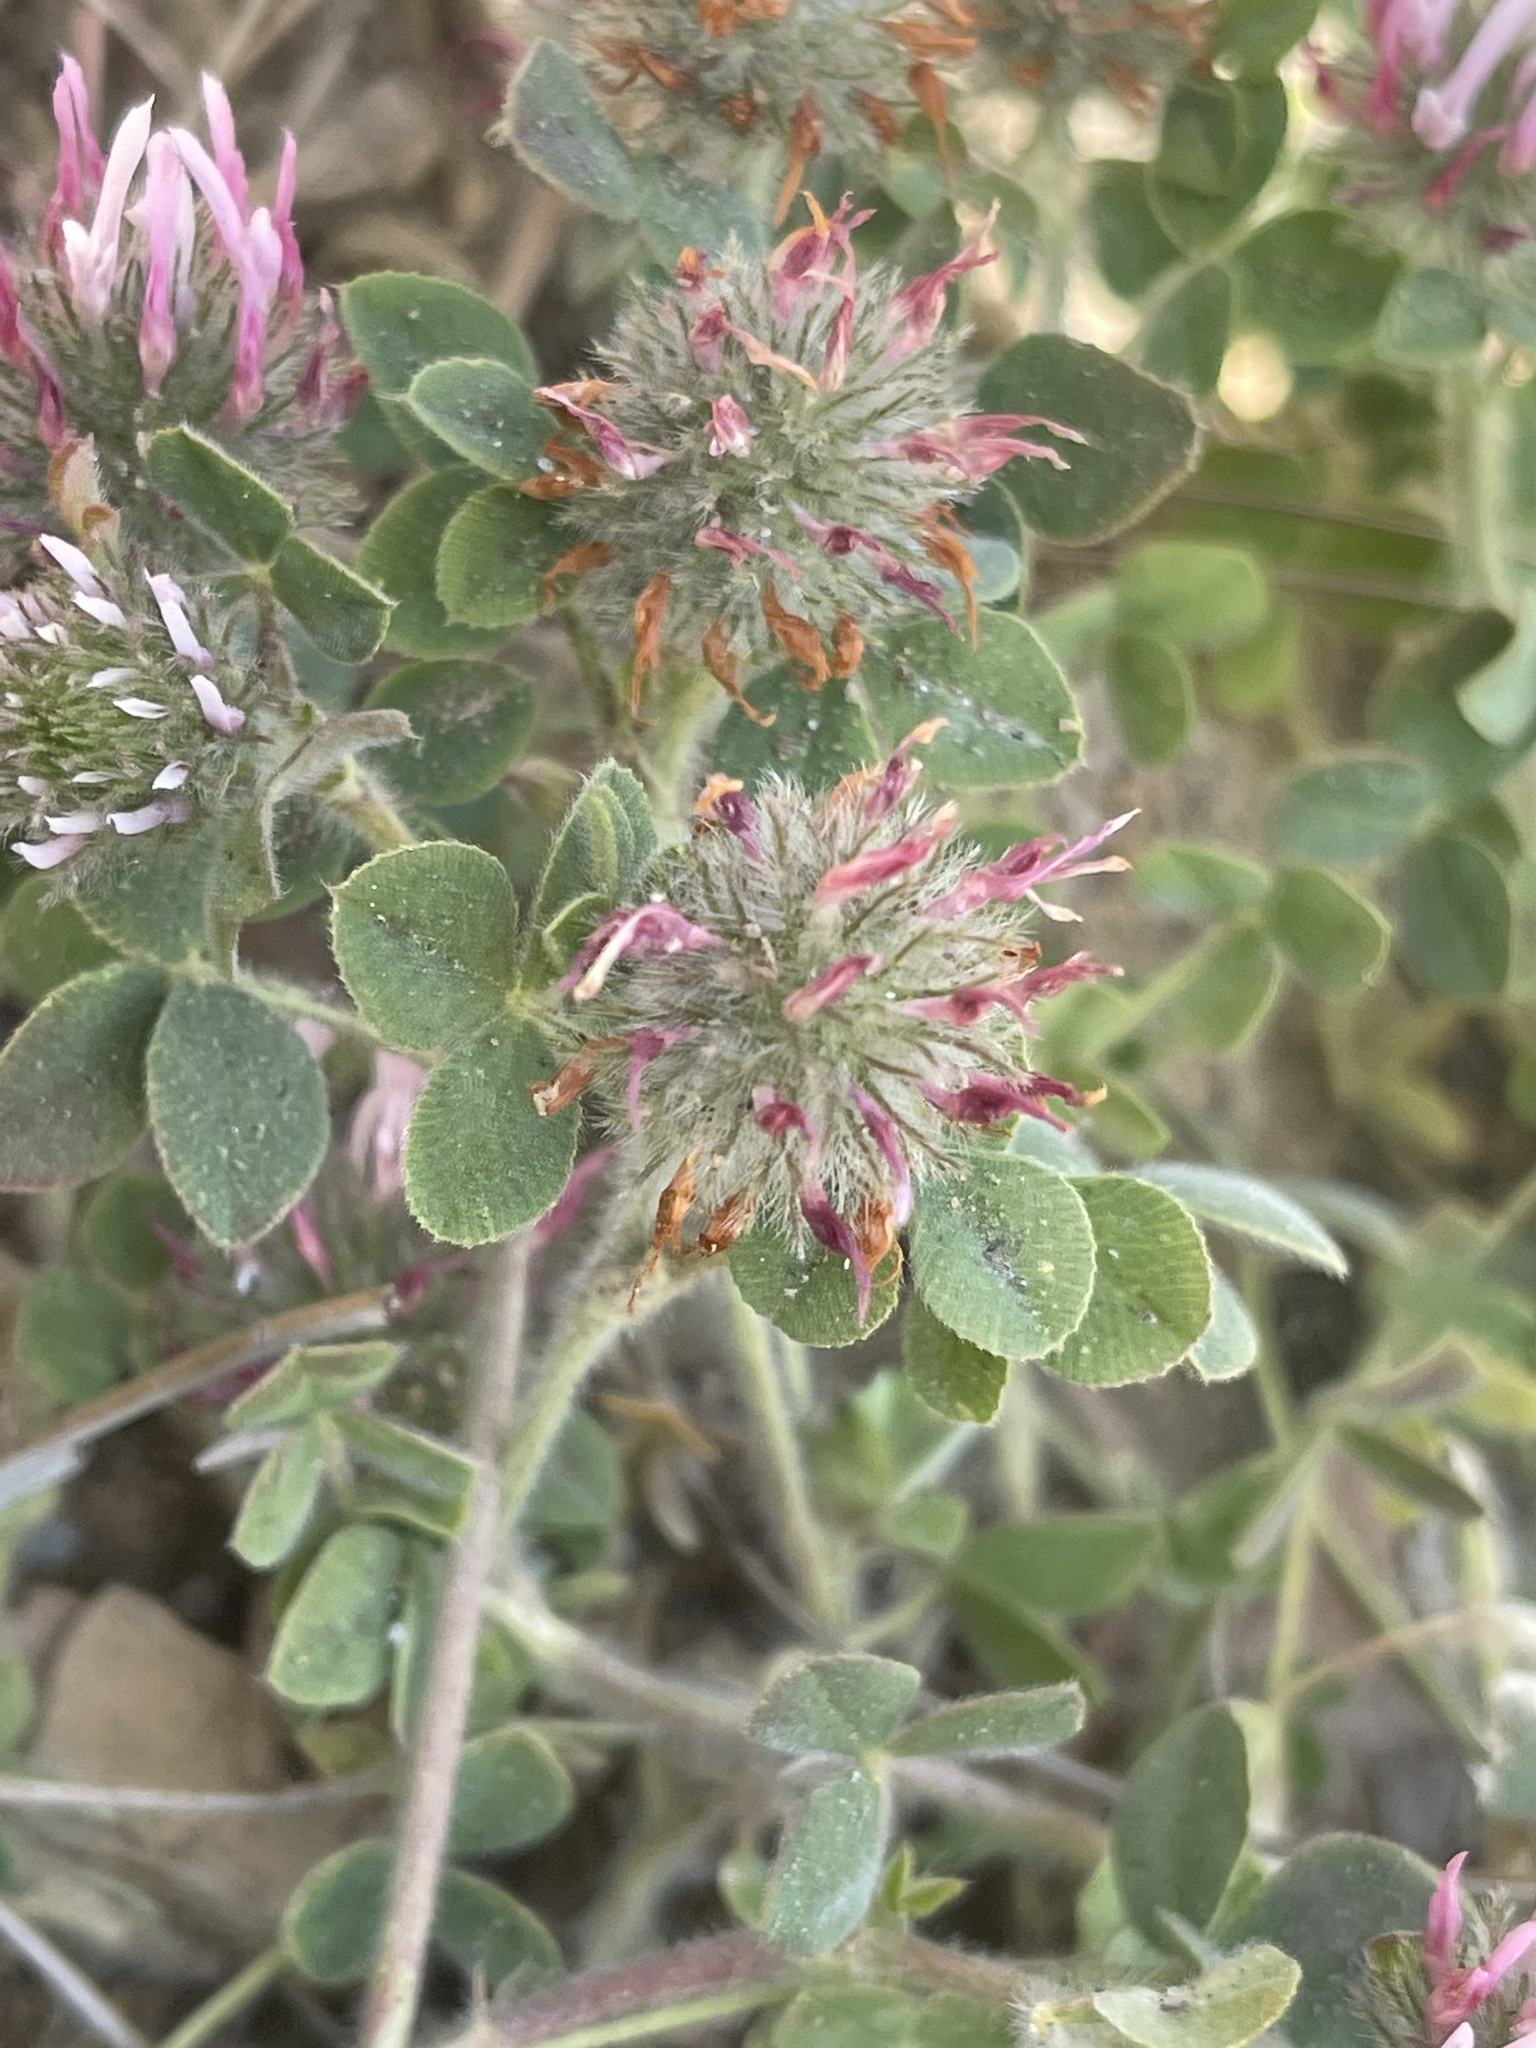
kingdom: Plantae
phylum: Tracheophyta
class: Magnoliopsida
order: Fabales
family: Fabaceae
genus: Trifolium
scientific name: Trifolium hirtum
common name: Rose clover
